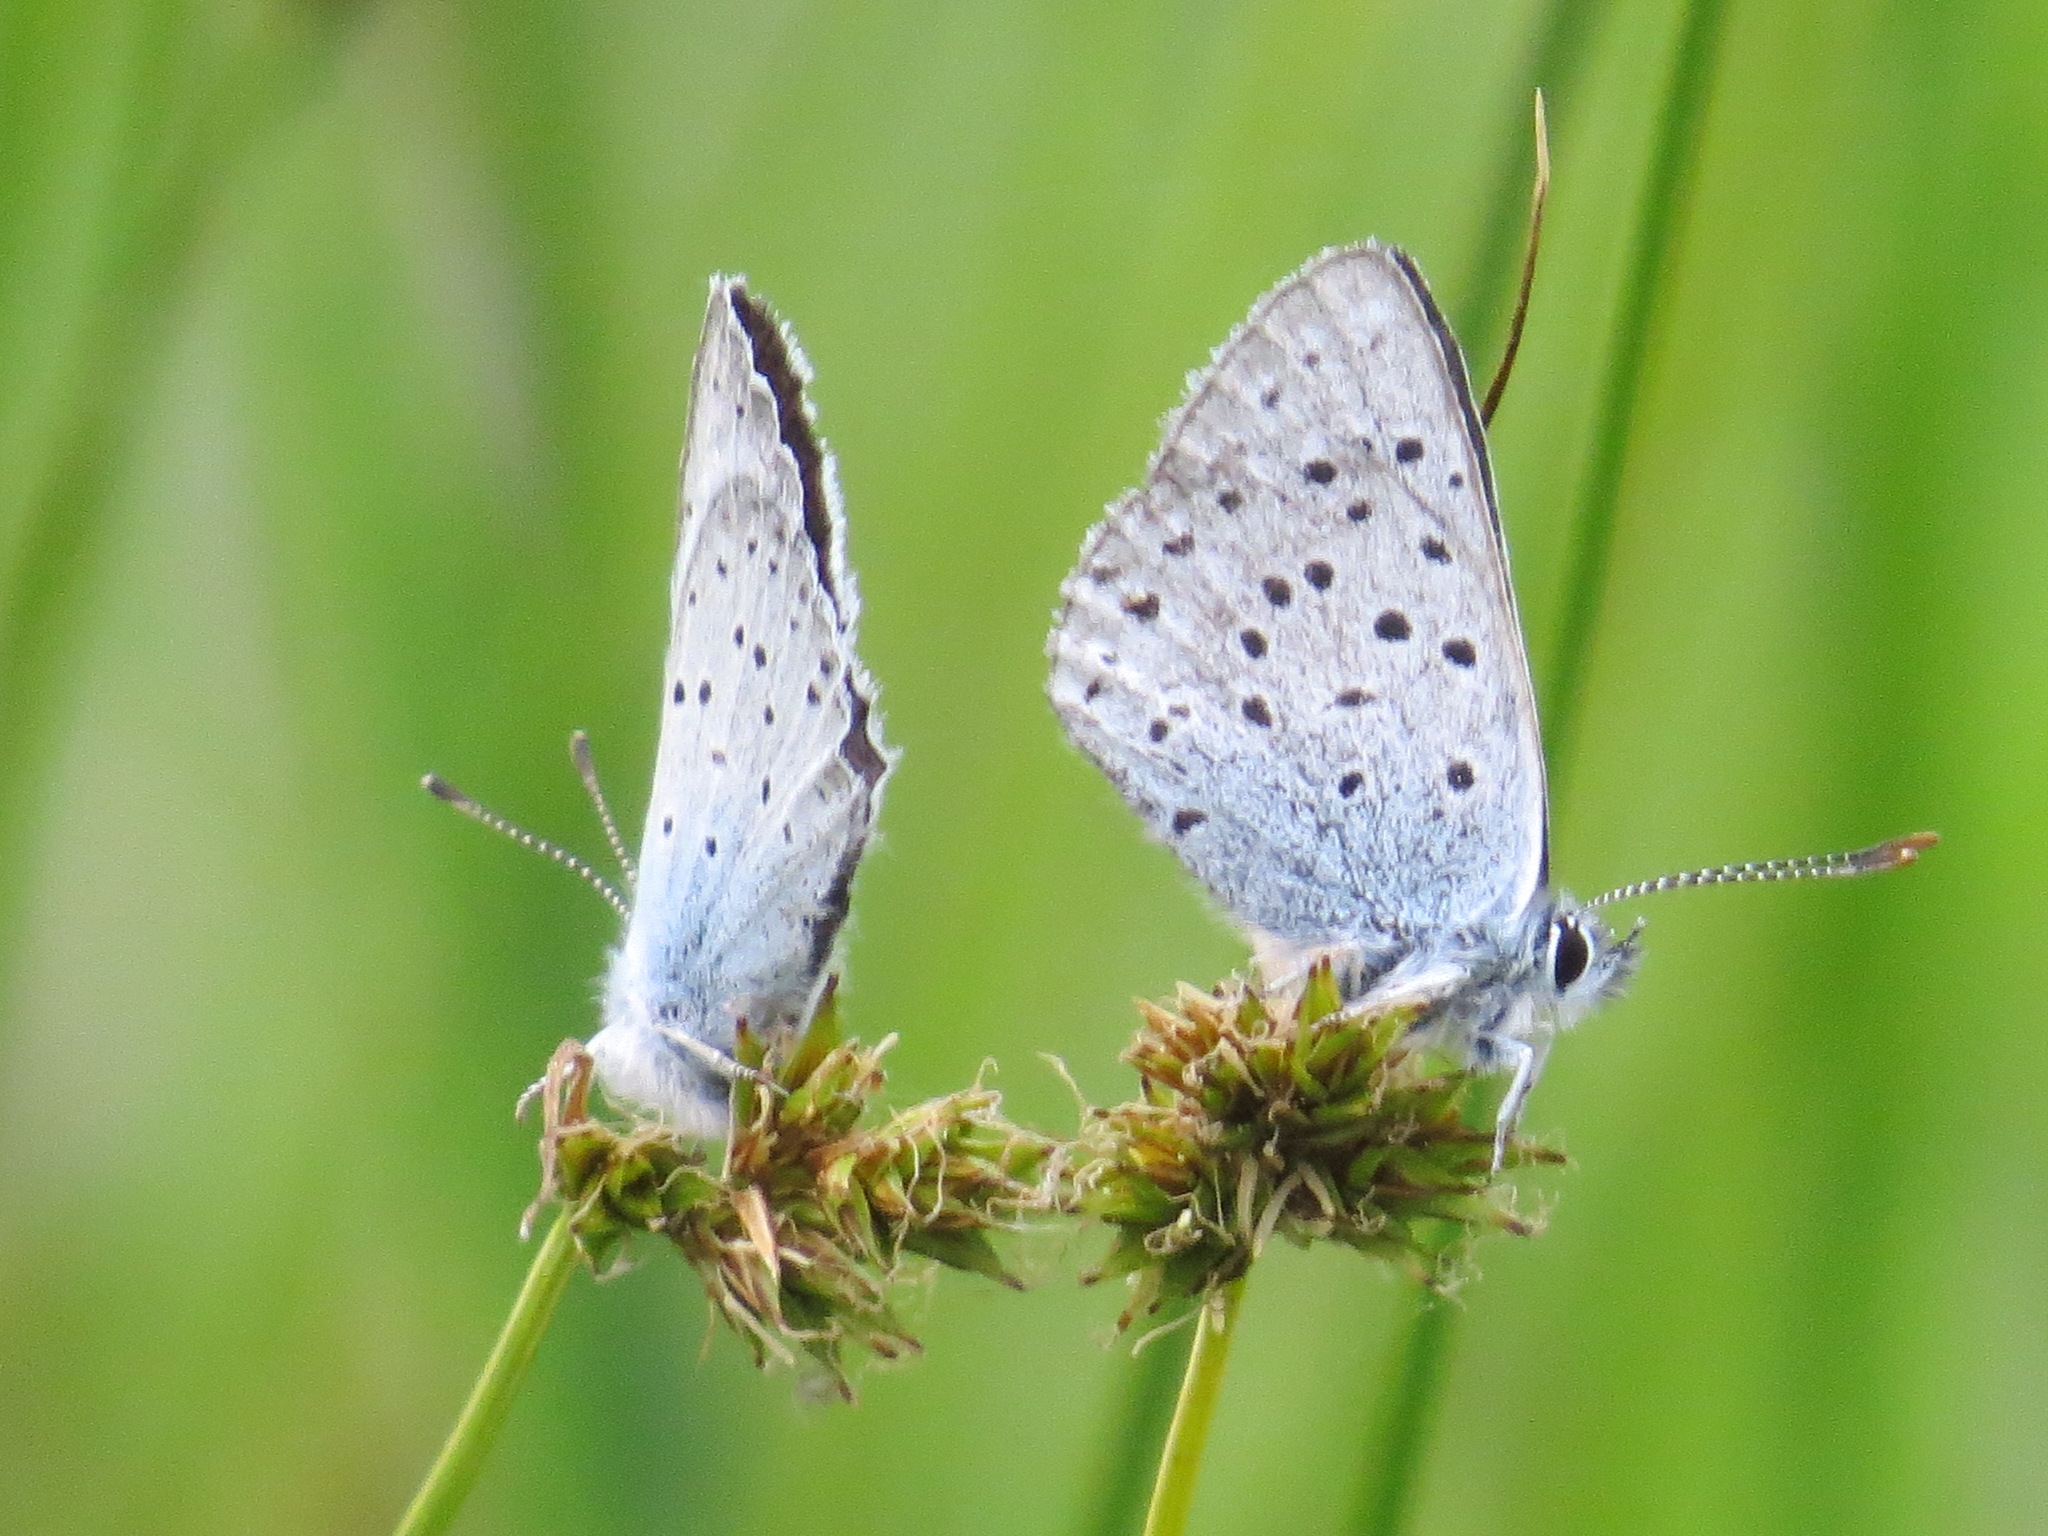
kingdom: Animalia
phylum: Arthropoda
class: Insecta
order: Lepidoptera
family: Lycaenidae
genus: Icaricia
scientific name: Icaricia saepiolus
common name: Greenish blue
